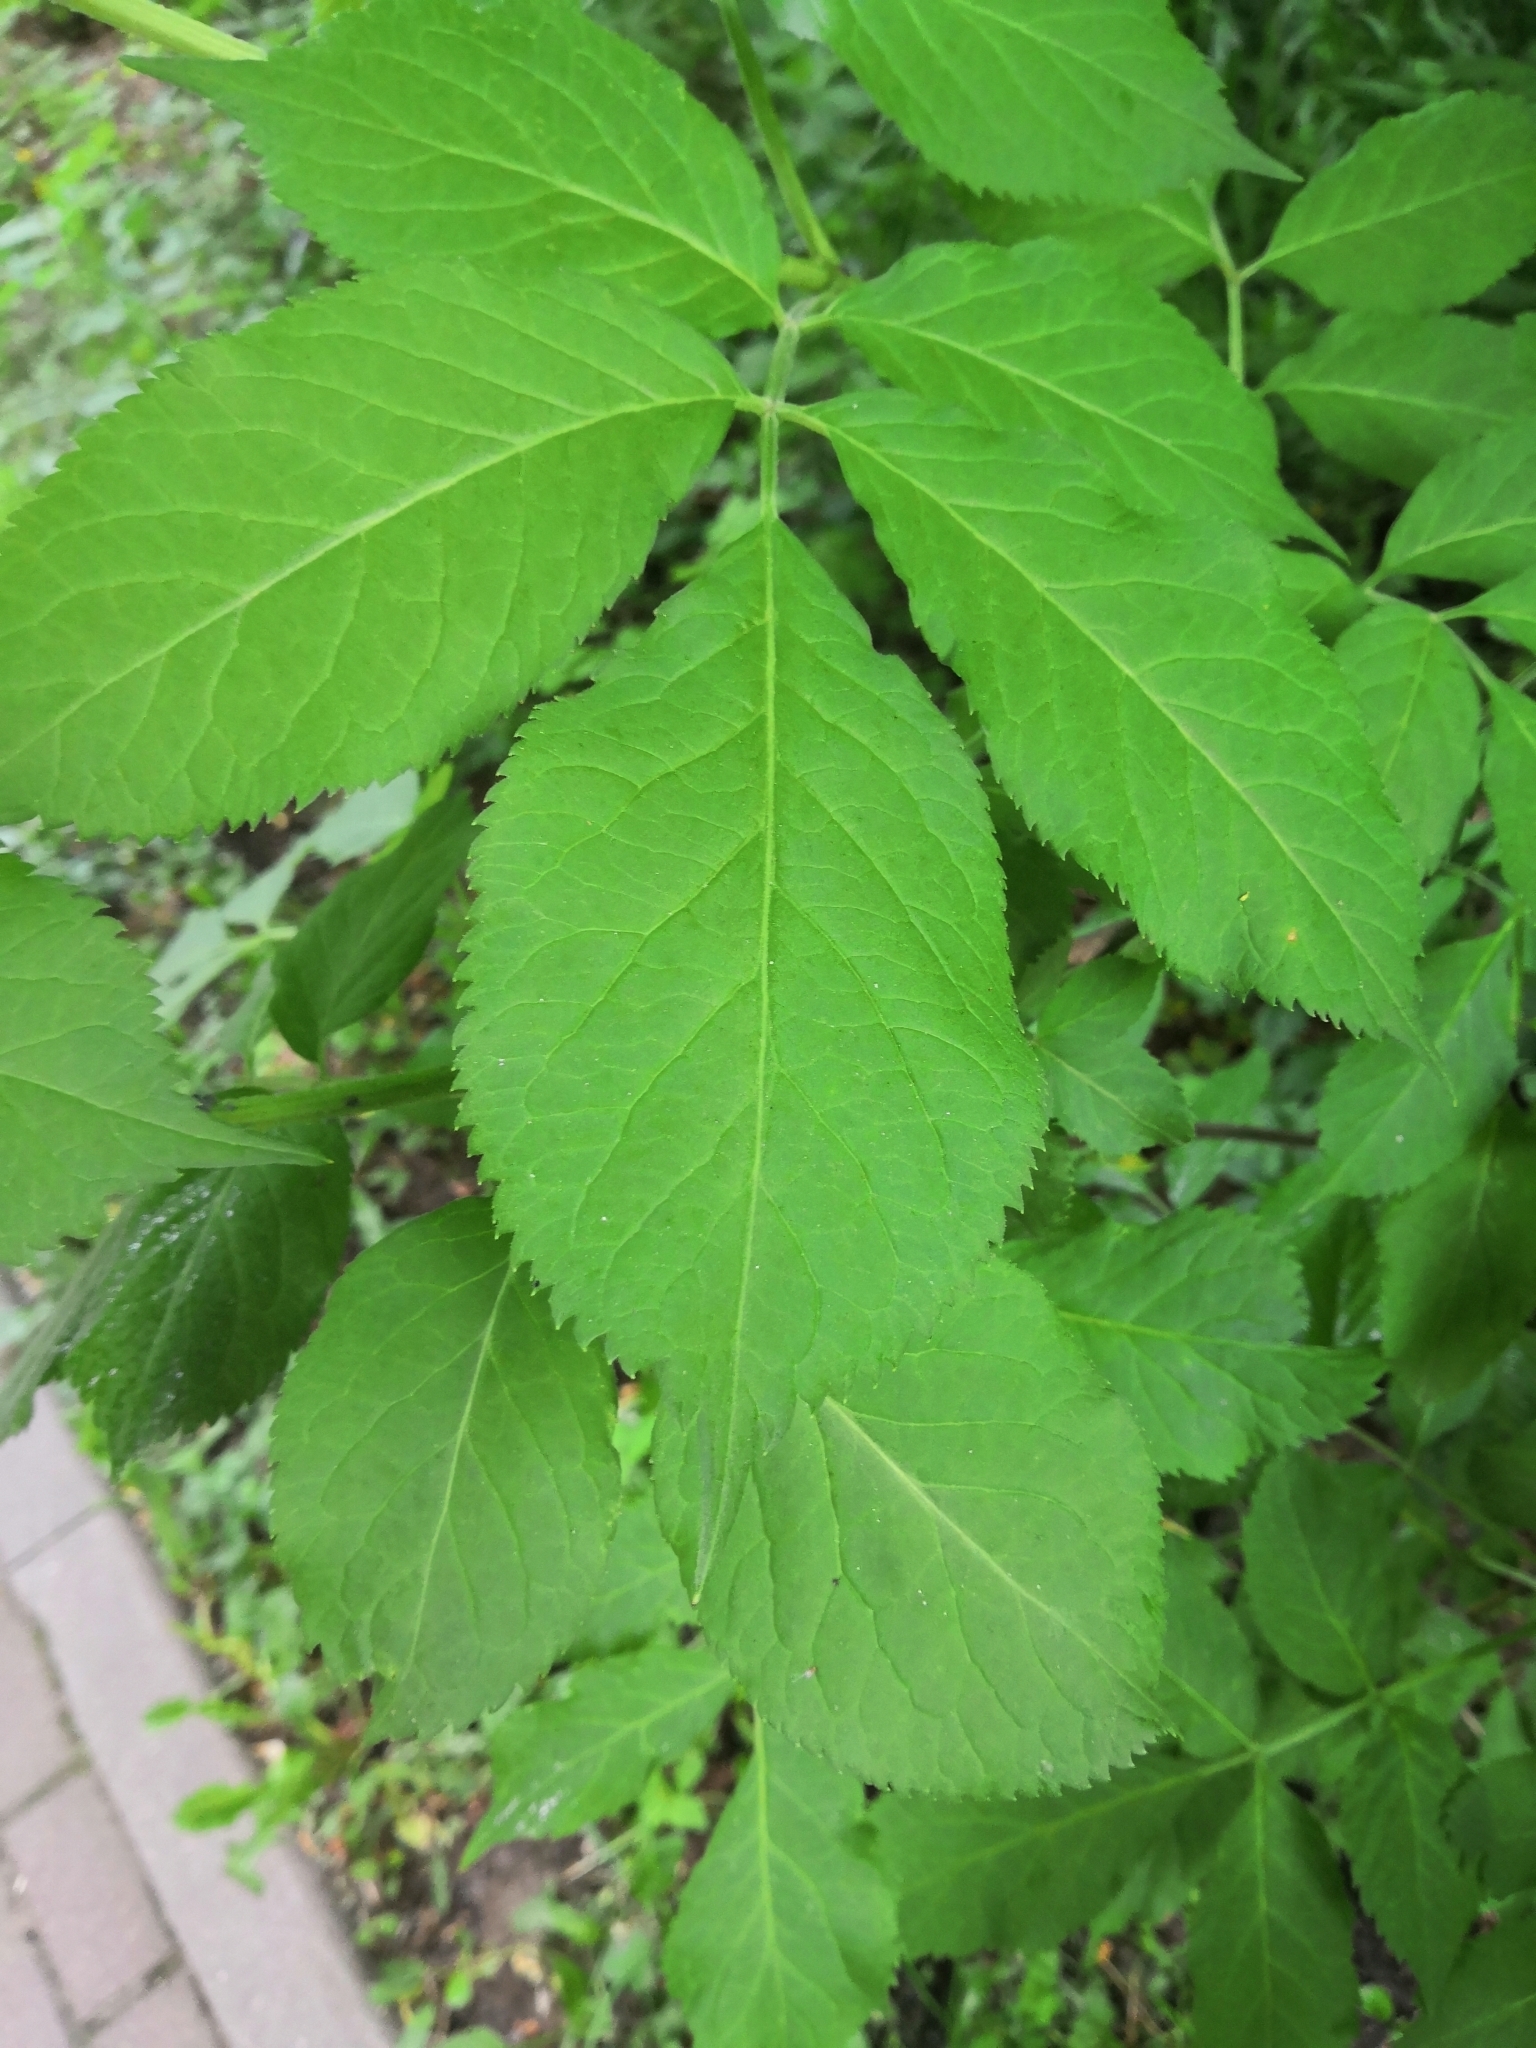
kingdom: Plantae
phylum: Tracheophyta
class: Magnoliopsida
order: Dipsacales
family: Viburnaceae
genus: Sambucus
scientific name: Sambucus nigra
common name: Elder
